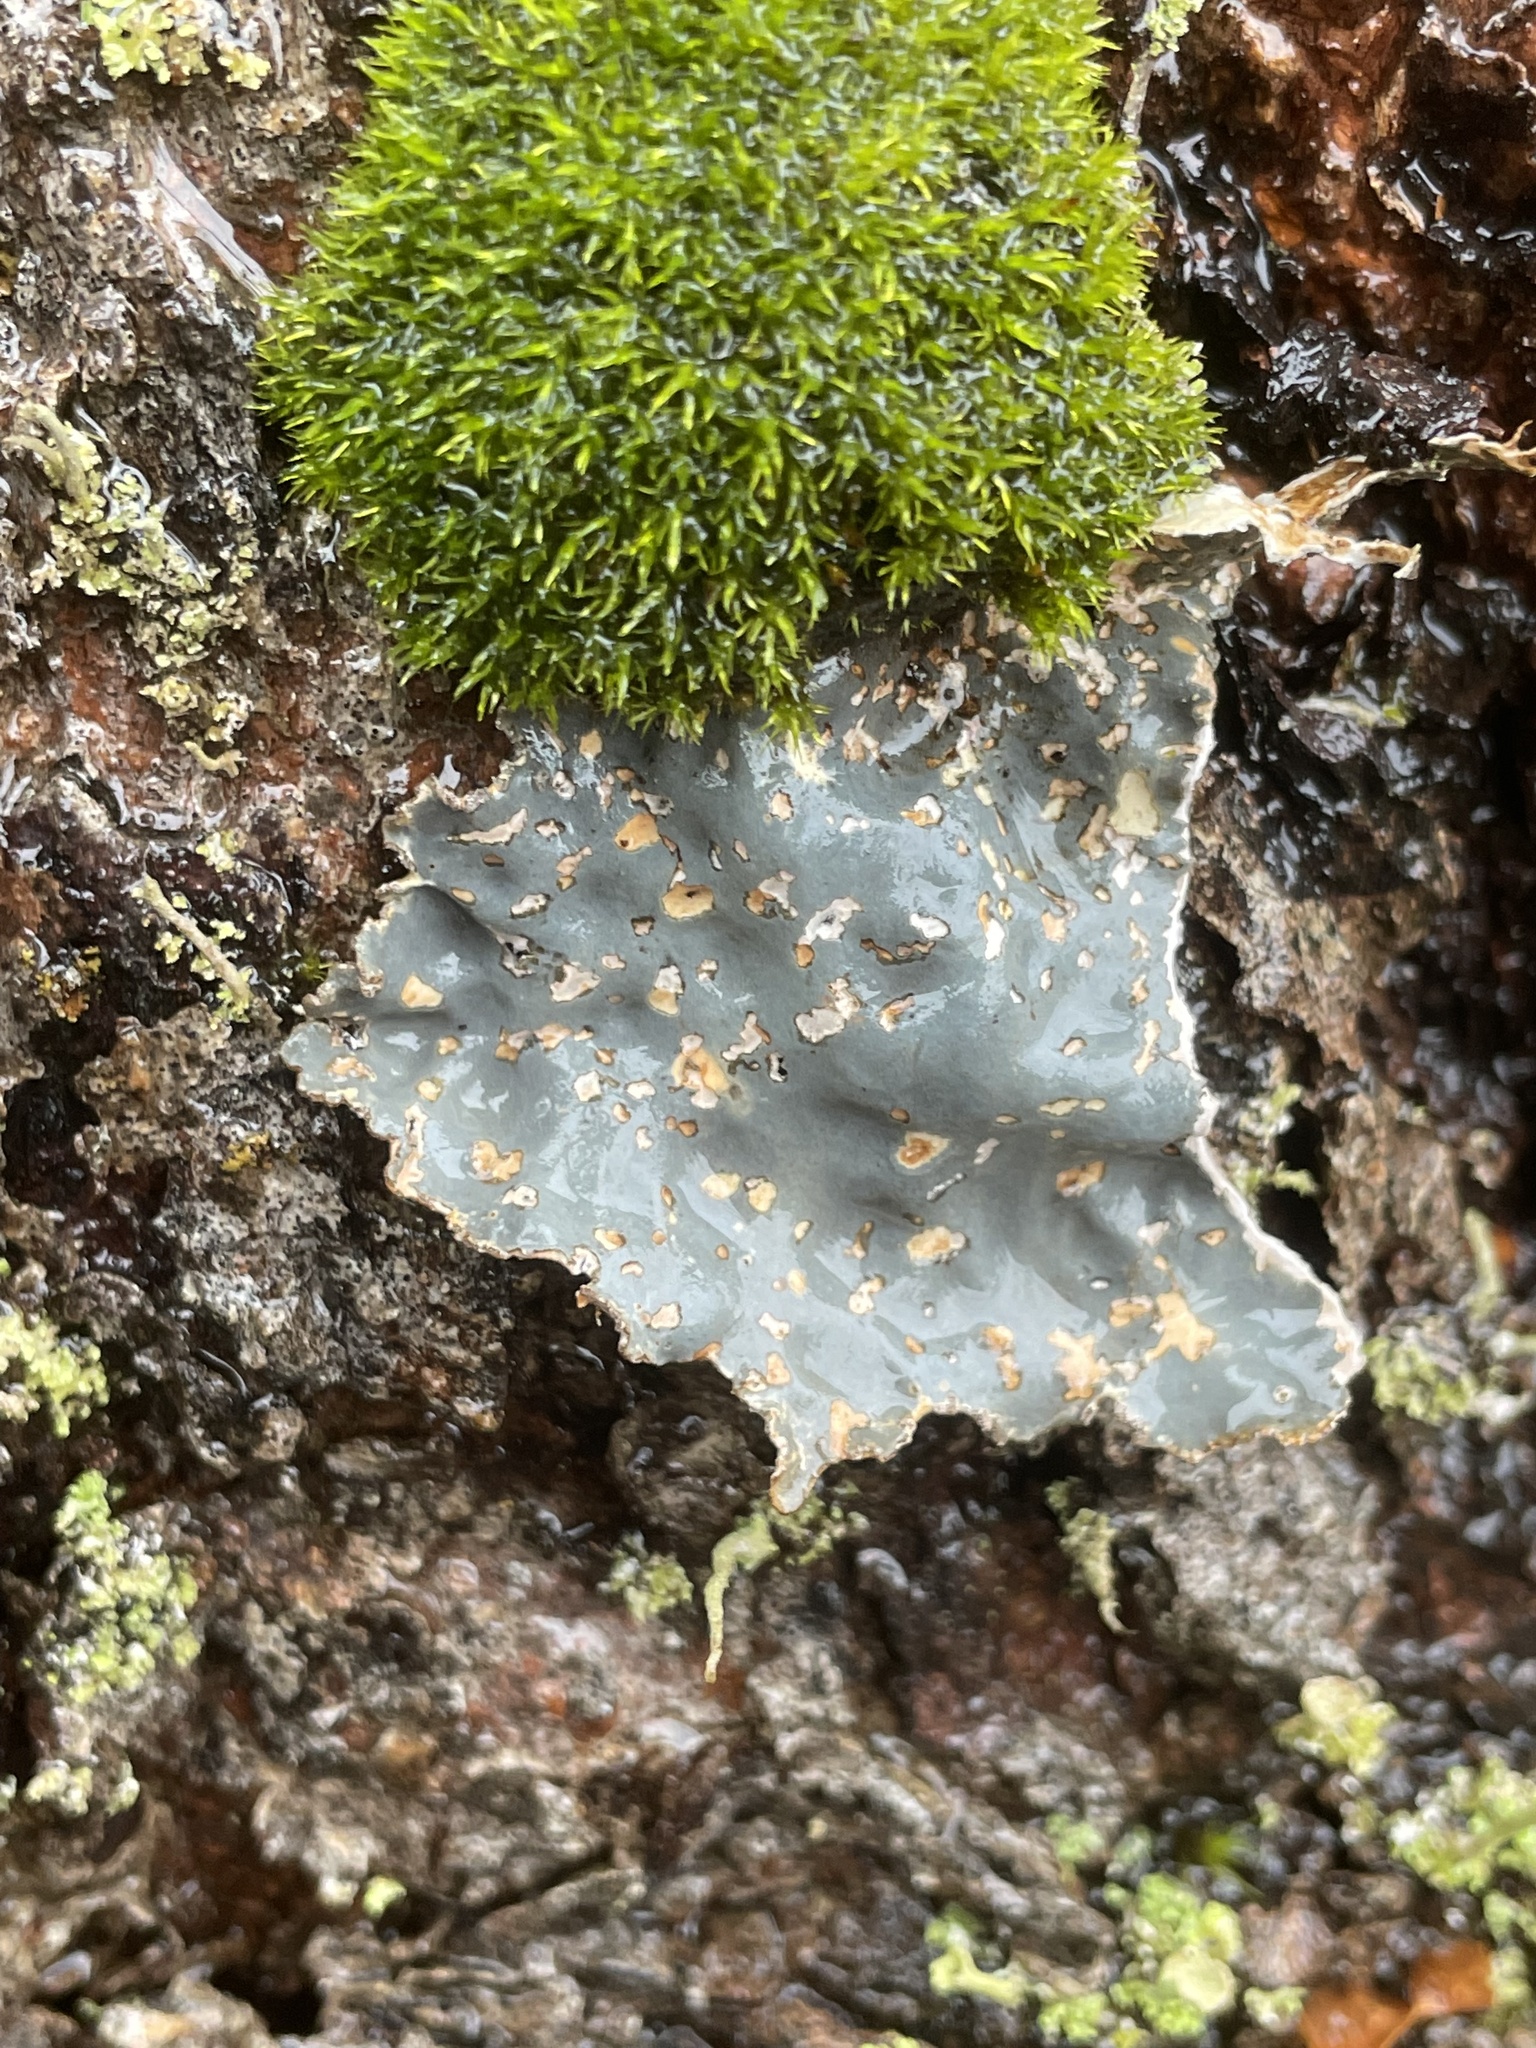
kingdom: Fungi
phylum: Ascomycota
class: Lecanoromycetes
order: Peltigerales
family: Lobariaceae
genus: Lobarina
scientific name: Lobarina scrobiculata
